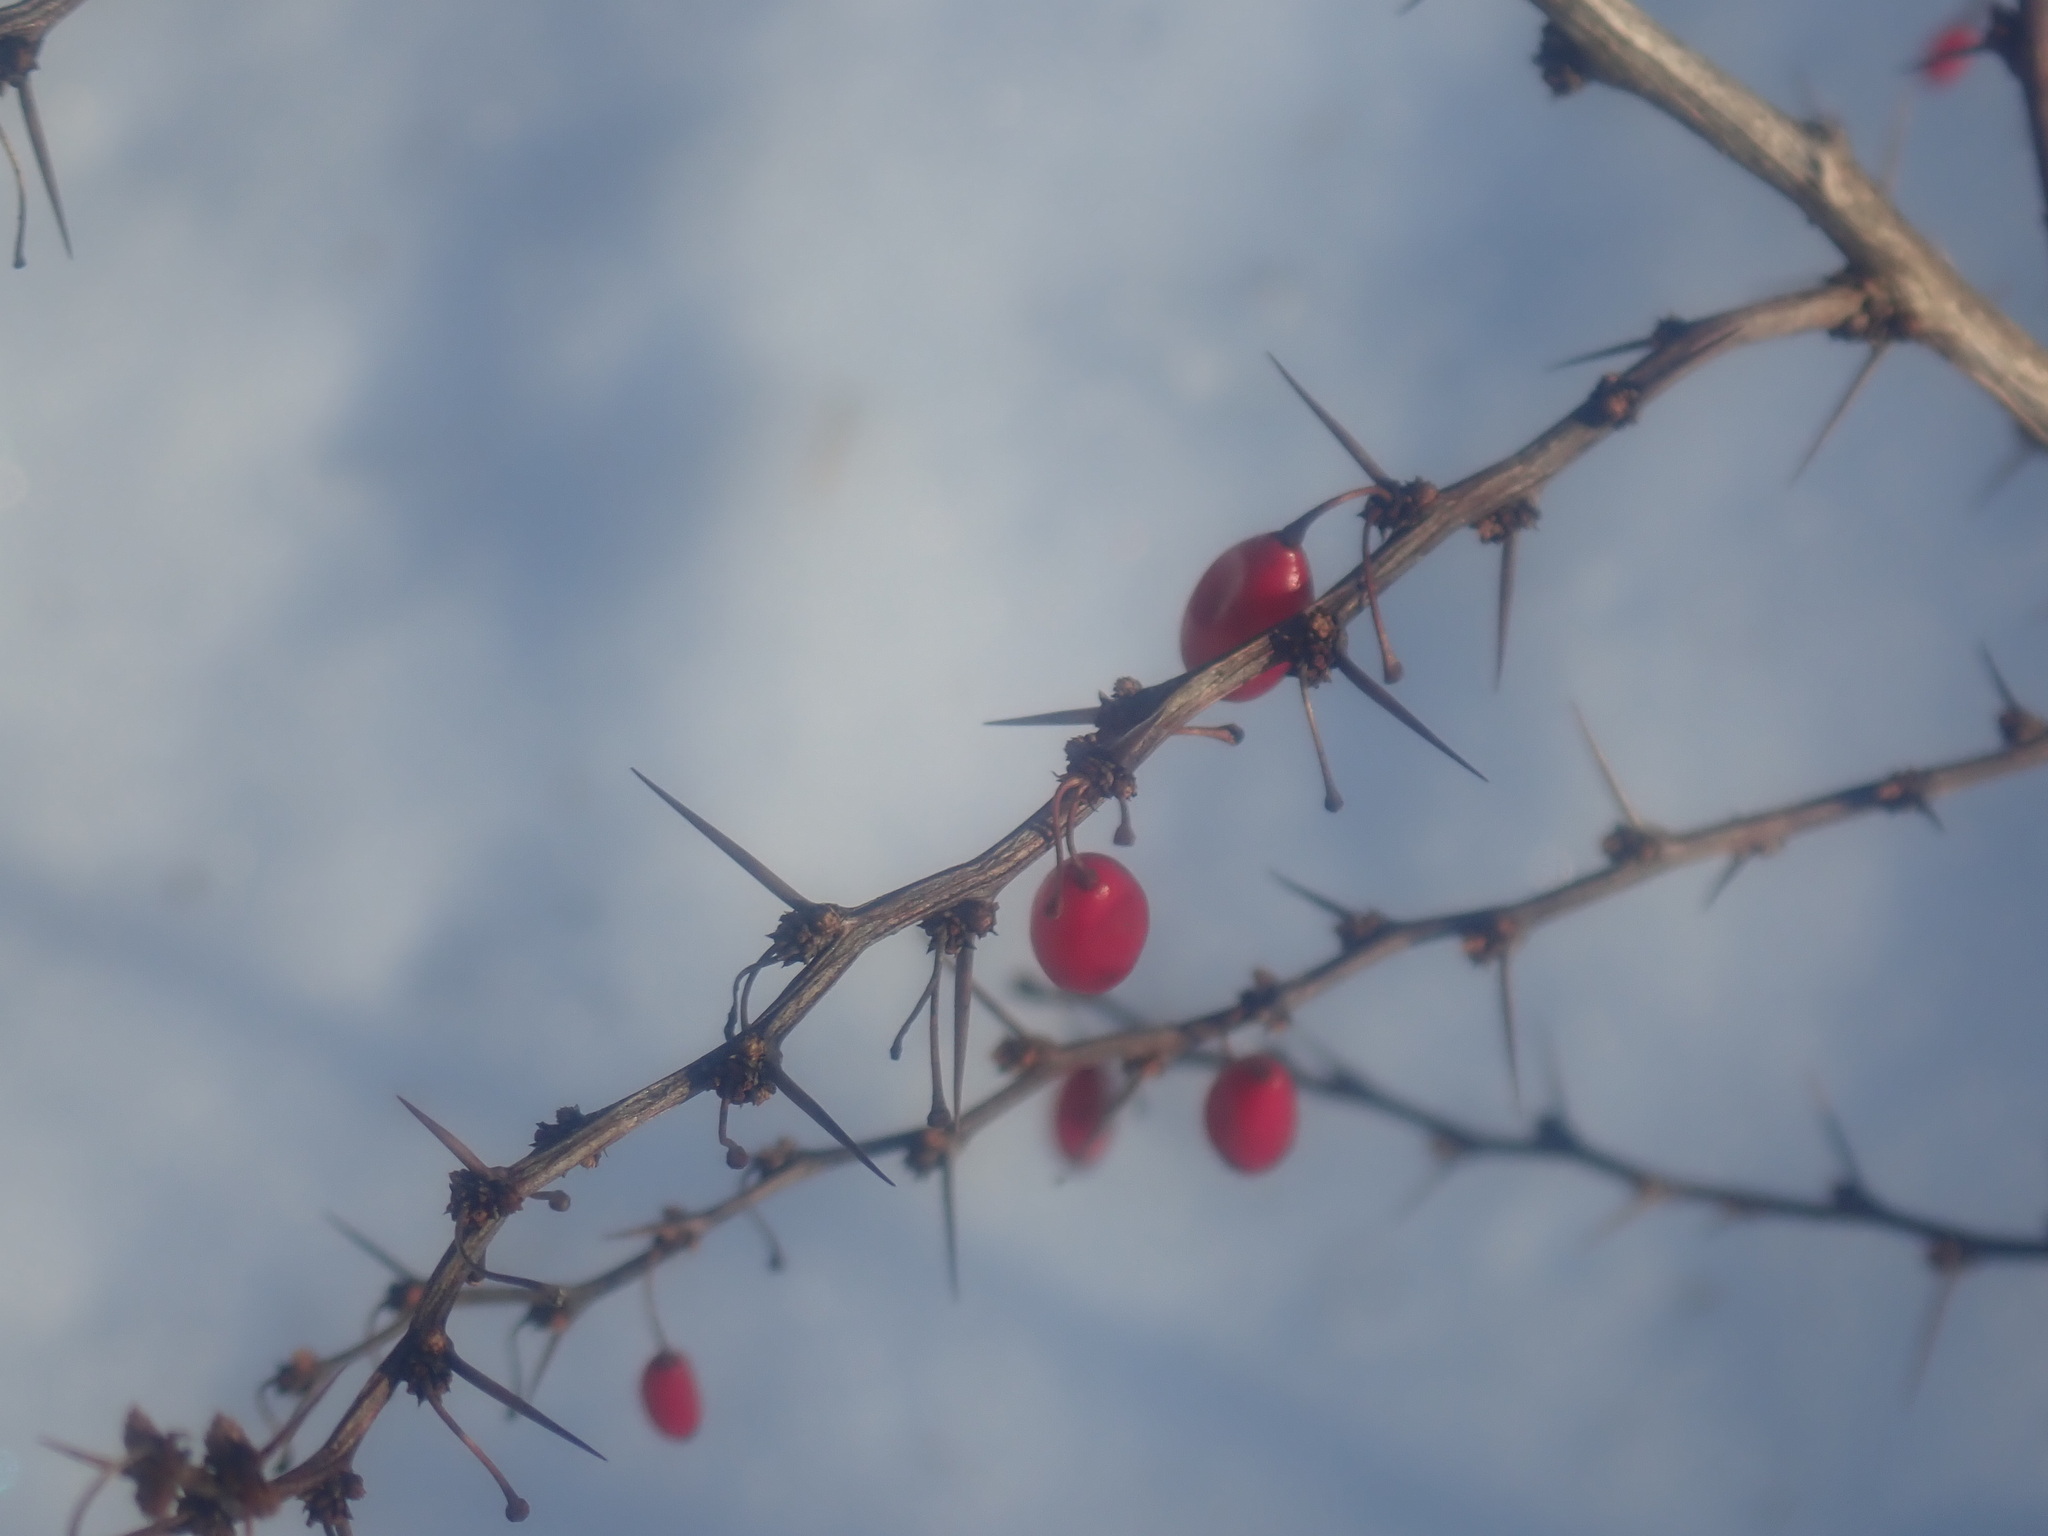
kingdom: Plantae
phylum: Tracheophyta
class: Magnoliopsida
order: Ranunculales
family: Berberidaceae
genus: Berberis
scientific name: Berberis thunbergii
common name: Japanese barberry
